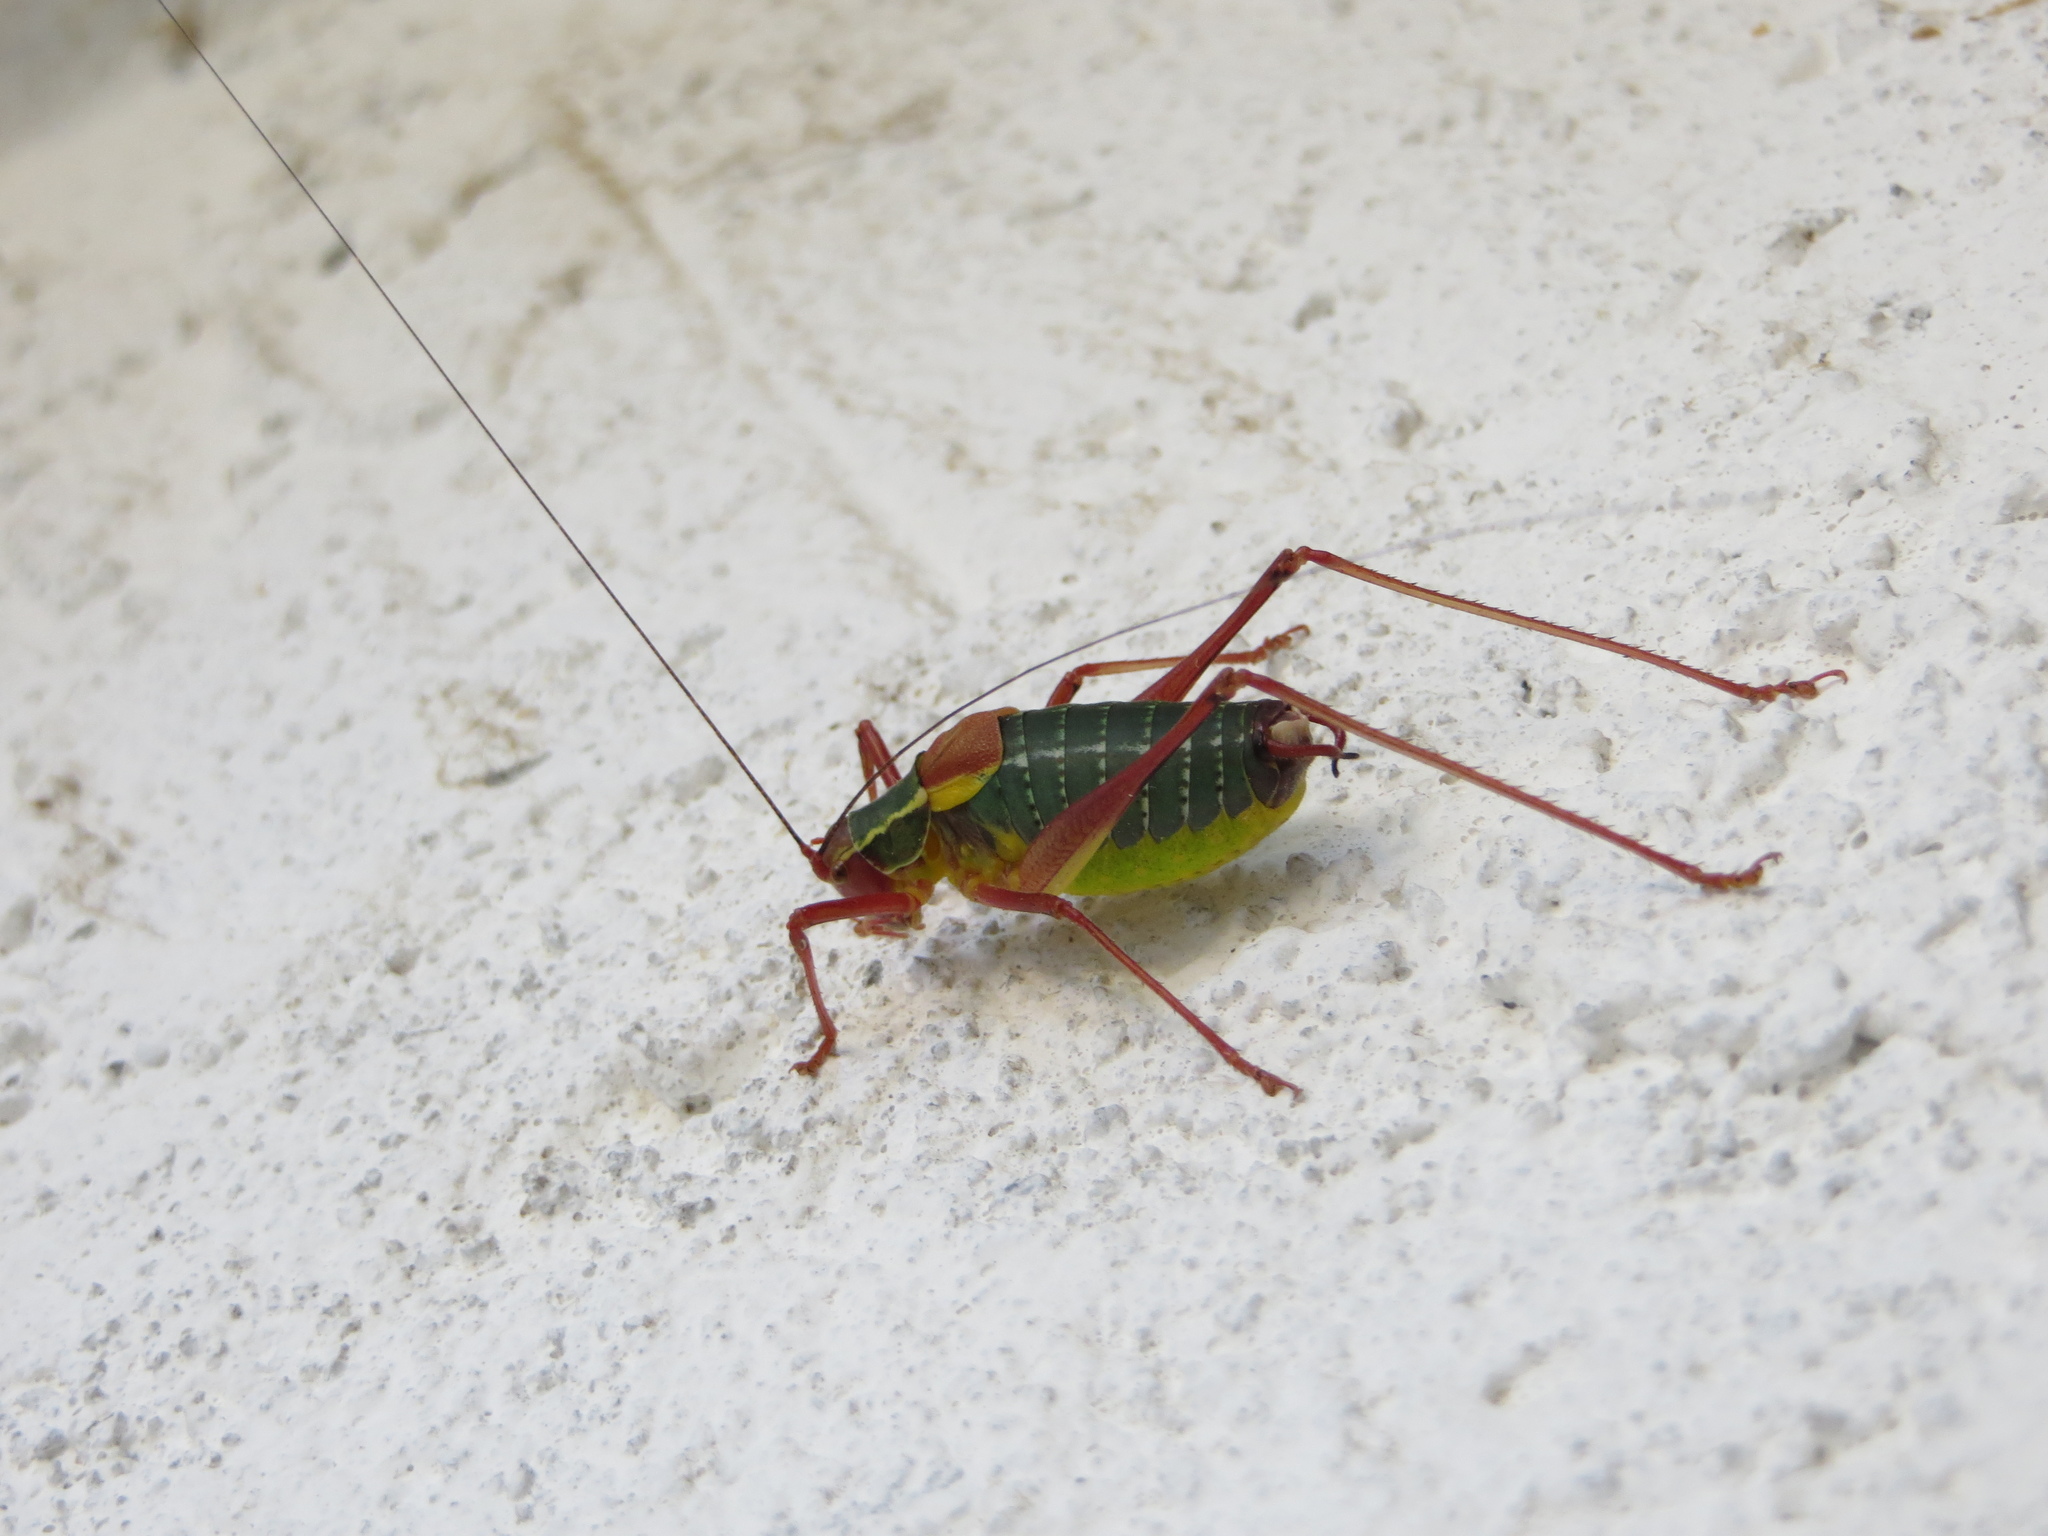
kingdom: Animalia
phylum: Arthropoda
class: Insecta
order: Orthoptera
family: Tettigoniidae
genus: Barbitistes
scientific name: Barbitistes obtusus
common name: Alpine saw bush-cricket
